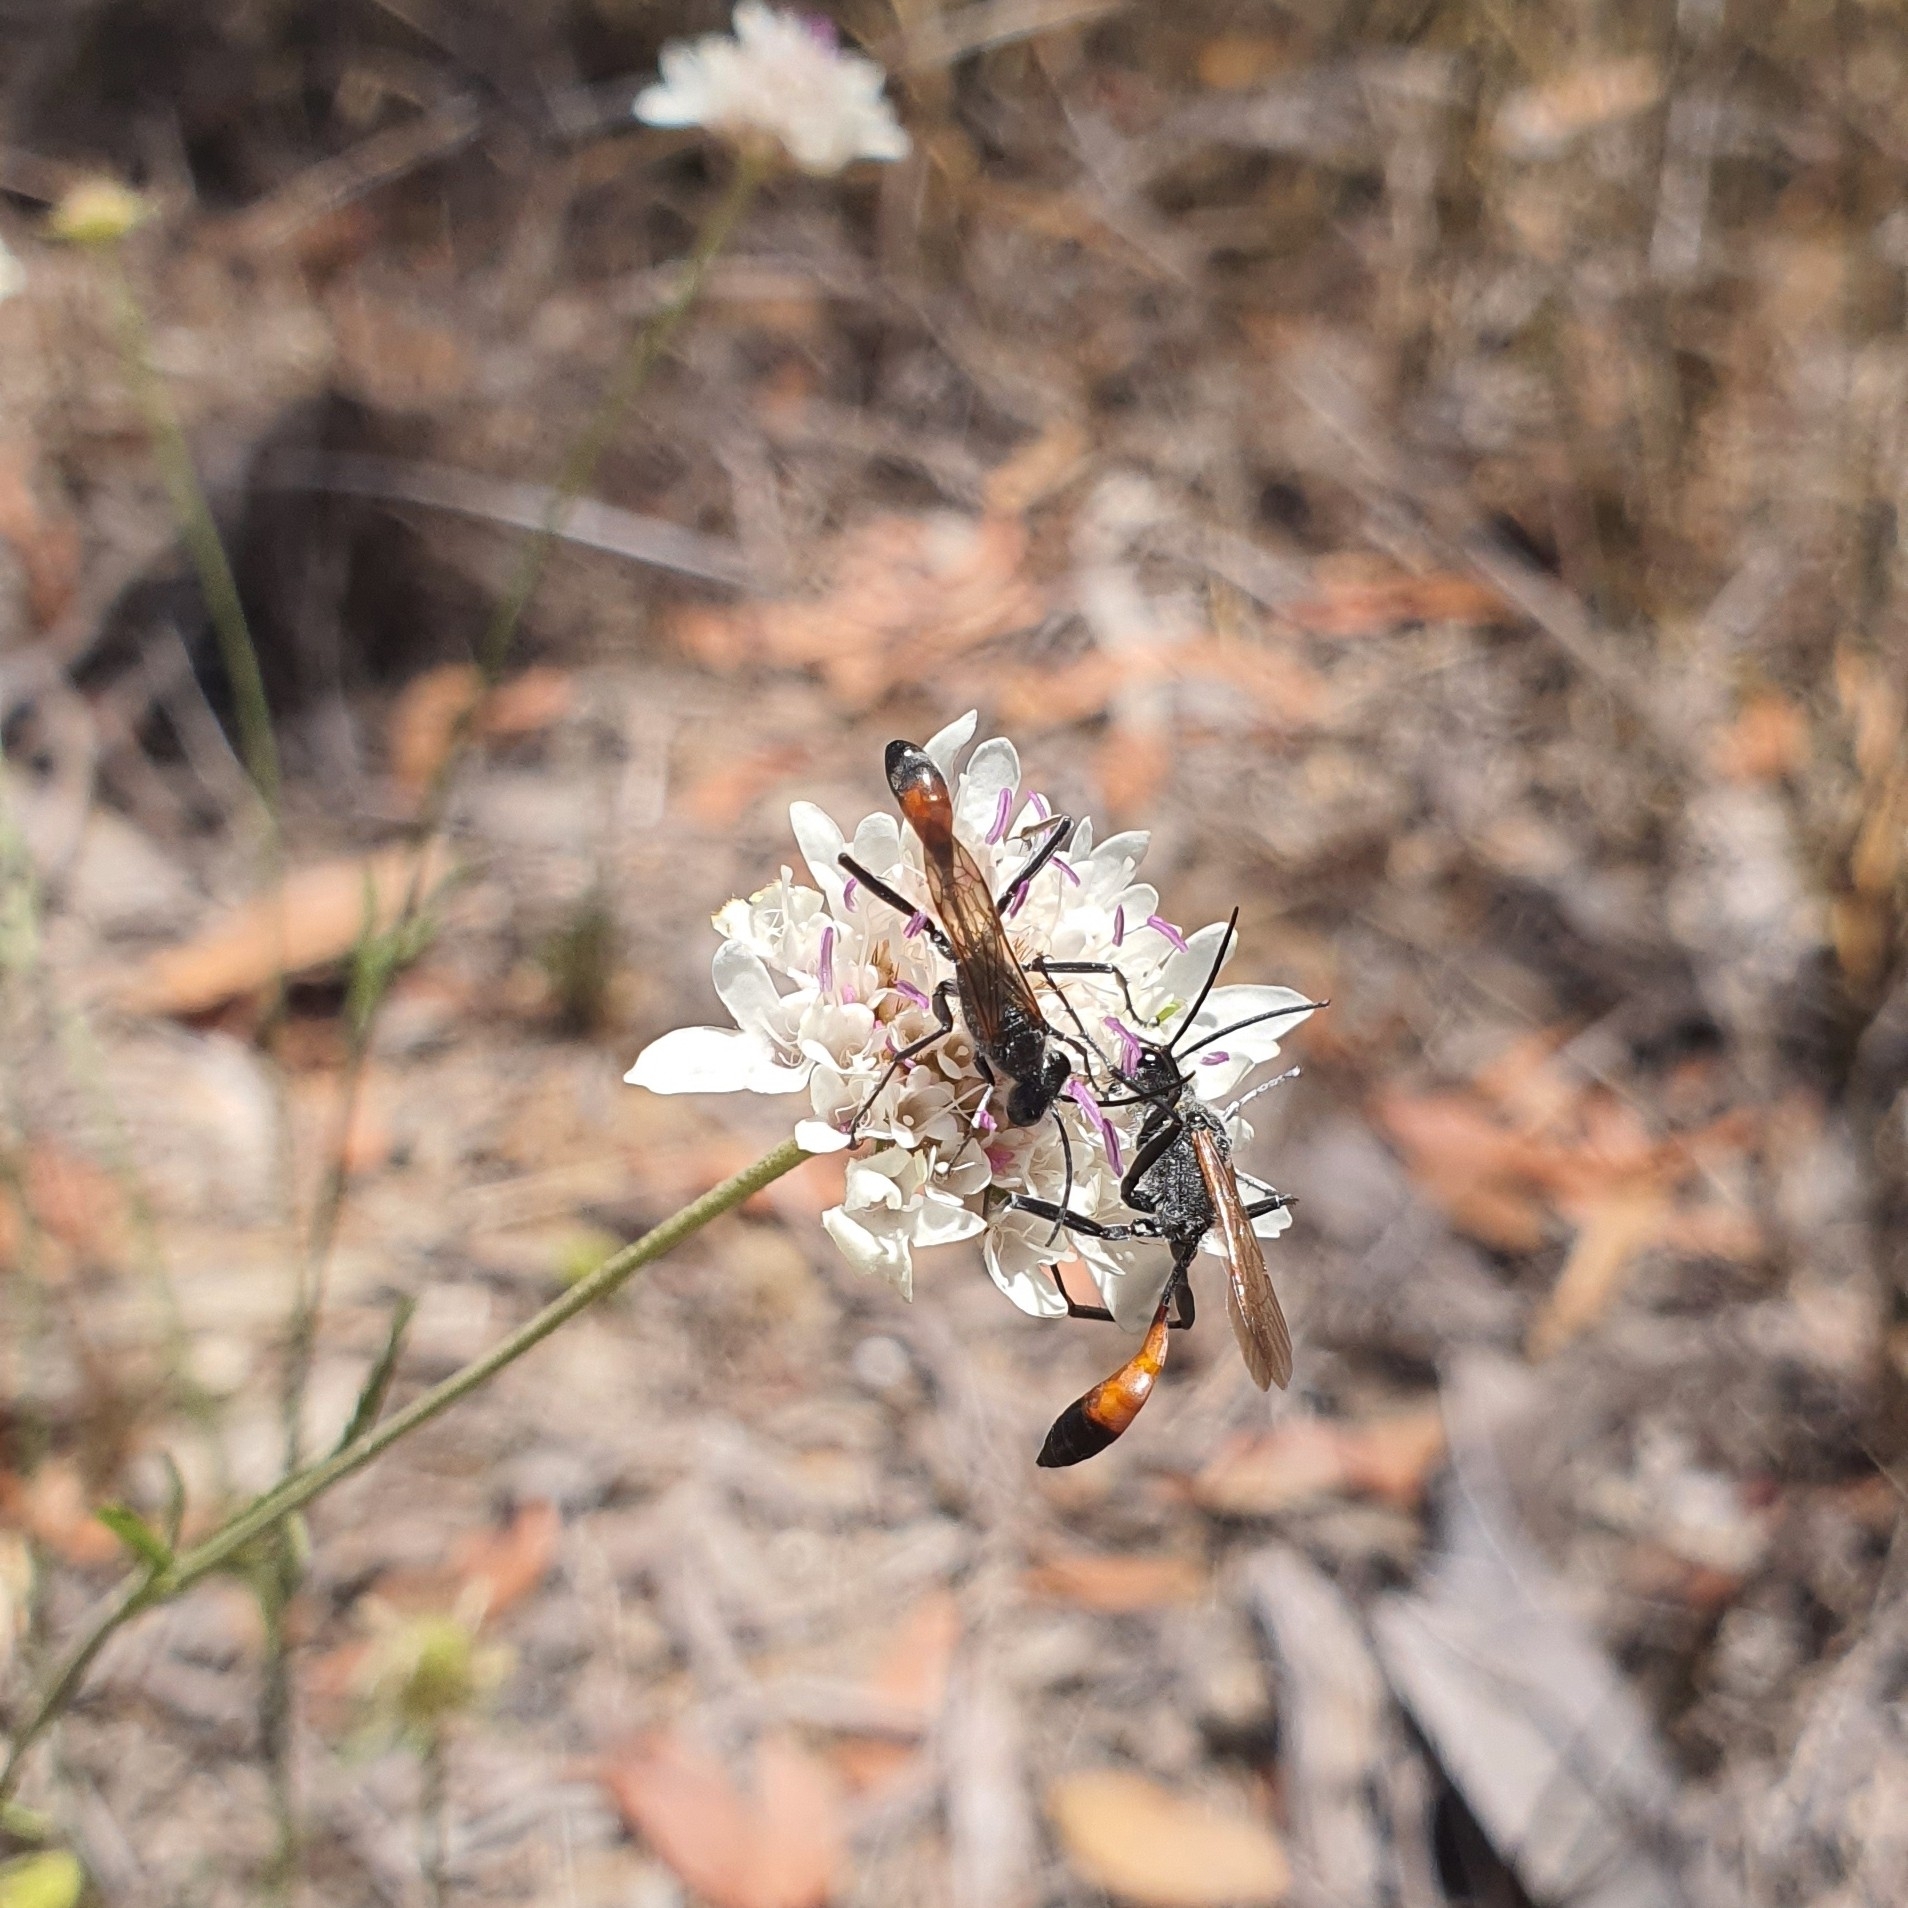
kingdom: Animalia
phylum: Arthropoda
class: Insecta
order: Hymenoptera
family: Sphecidae
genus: Podalonia
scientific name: Podalonia tydei
